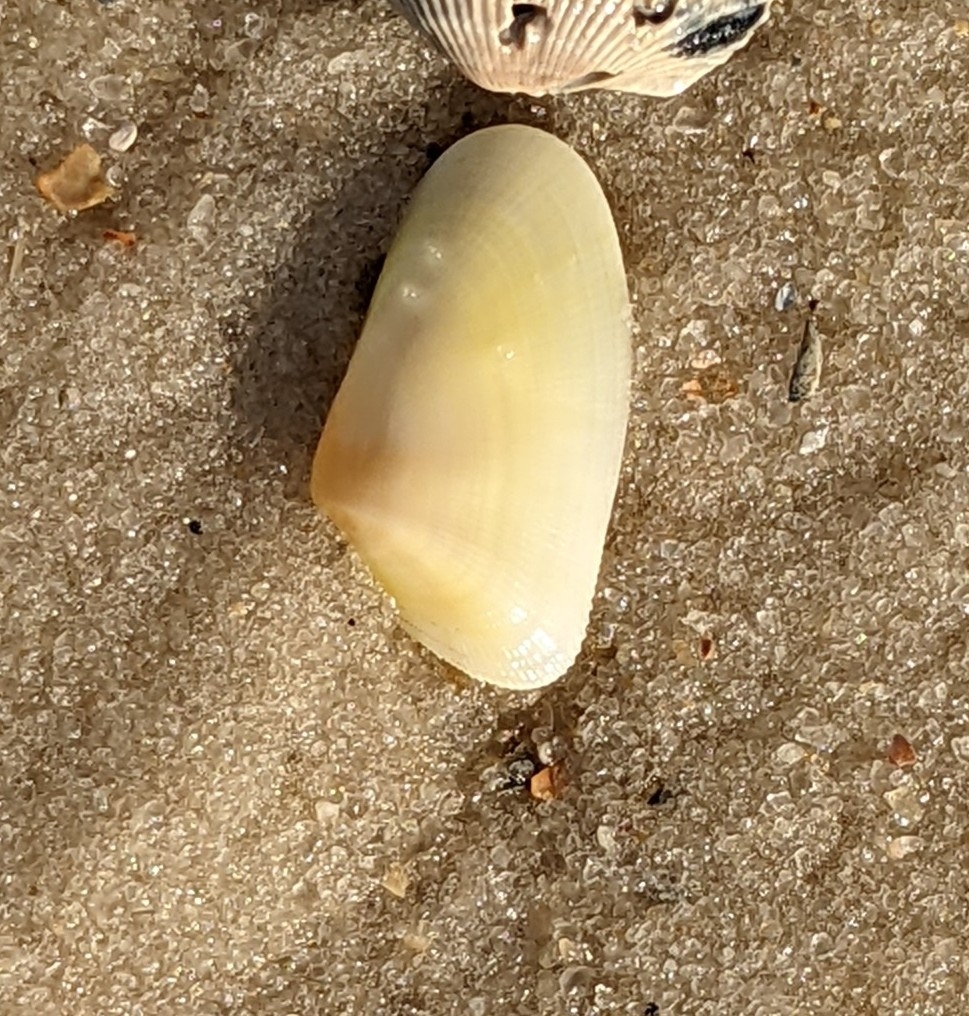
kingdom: Animalia
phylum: Mollusca
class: Bivalvia
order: Cardiida
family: Donacidae
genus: Donax
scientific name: Donax variabilis
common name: Butterfly shell
